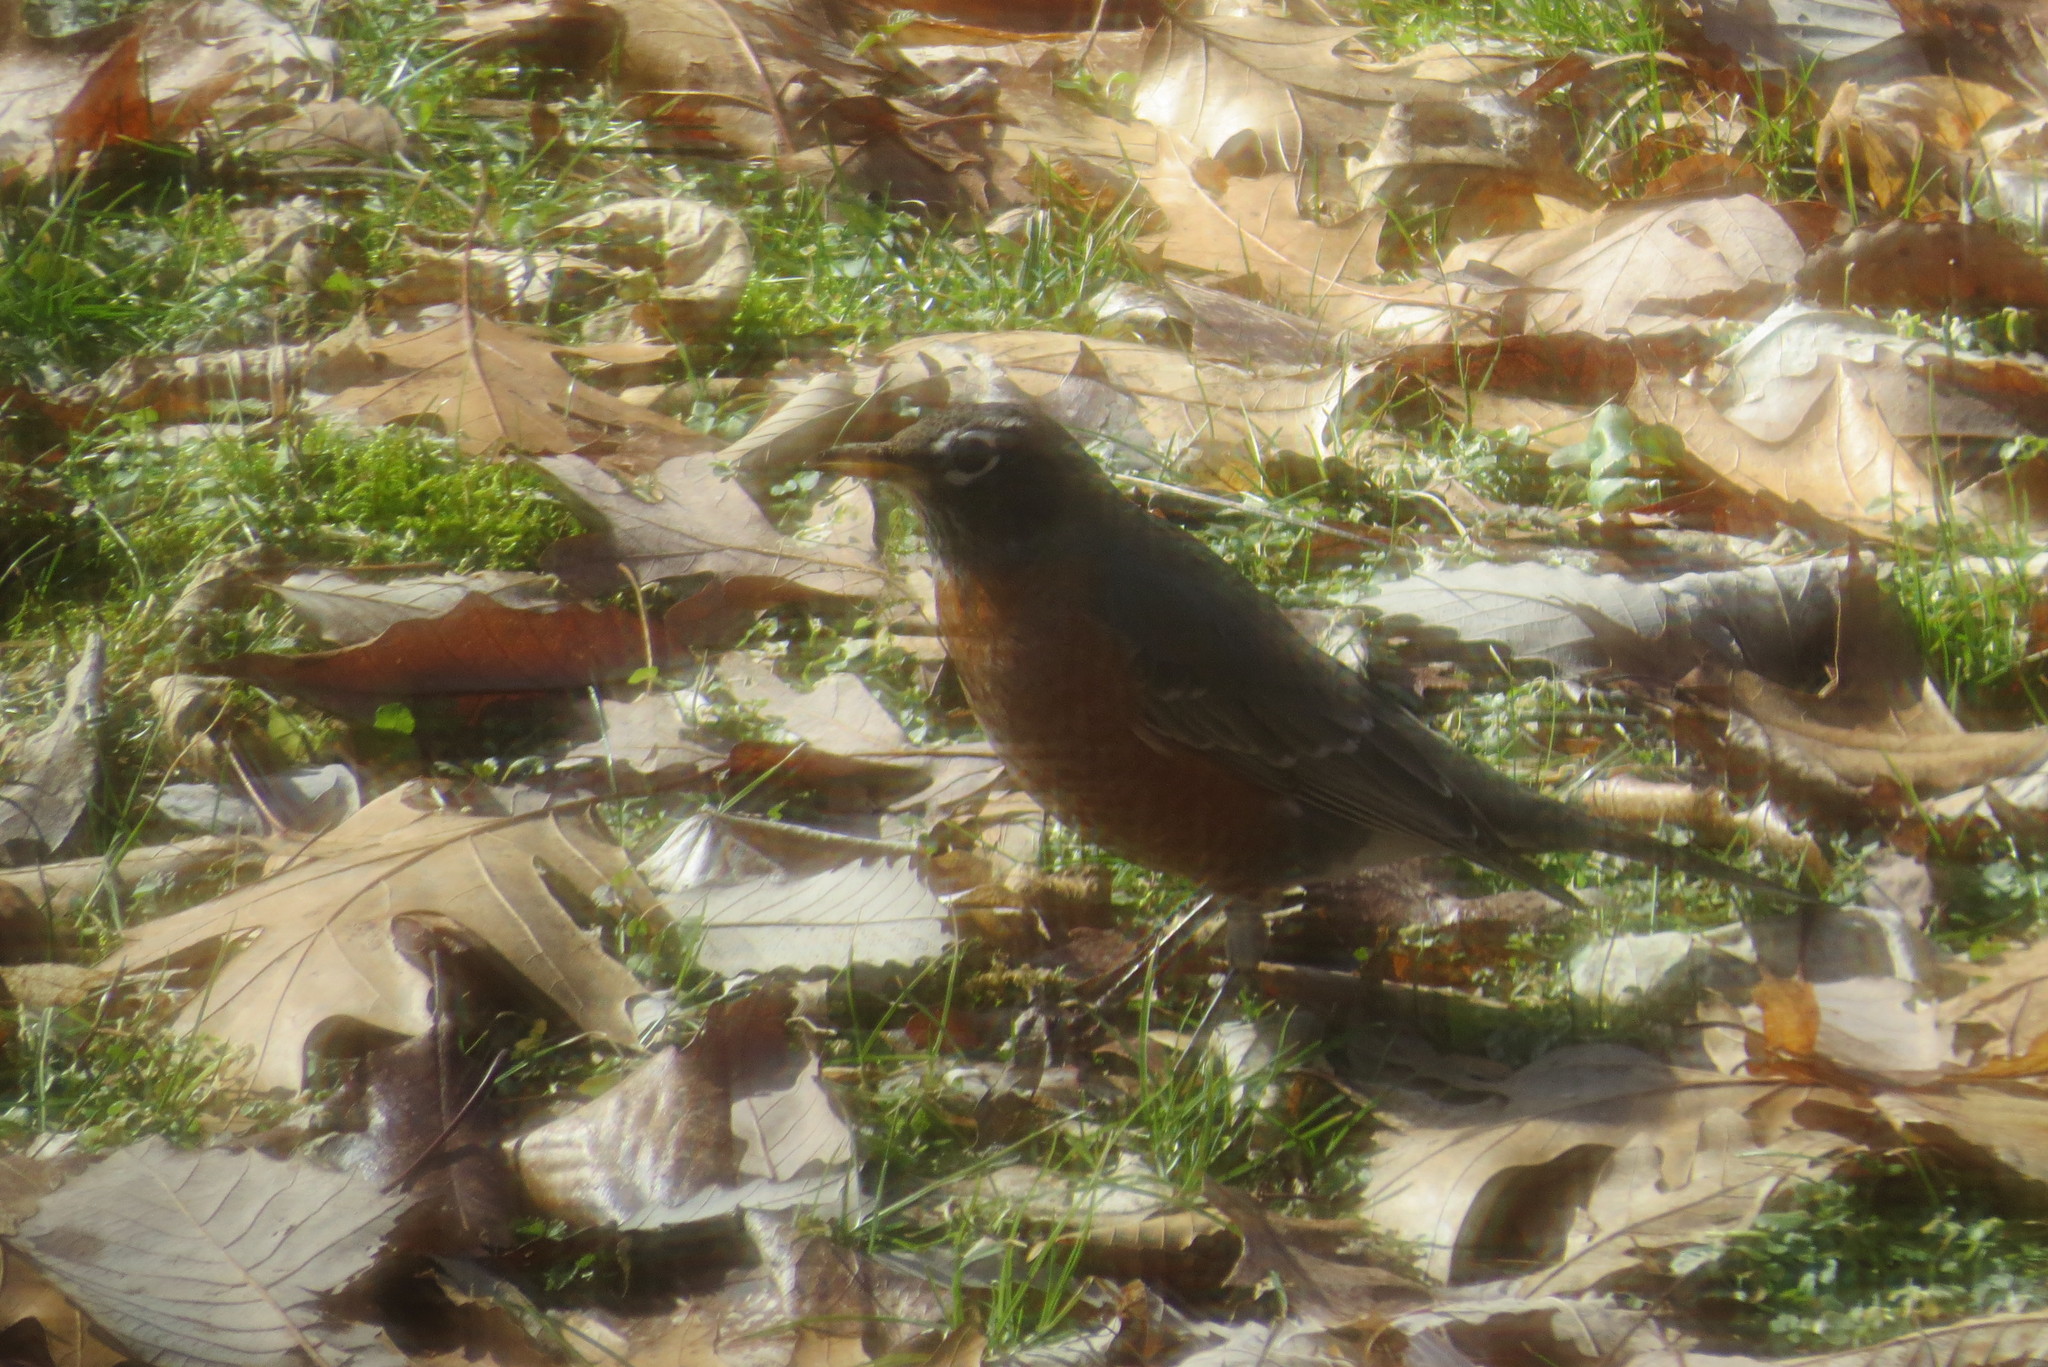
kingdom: Animalia
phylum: Chordata
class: Aves
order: Passeriformes
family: Turdidae
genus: Turdus
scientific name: Turdus migratorius
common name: American robin
